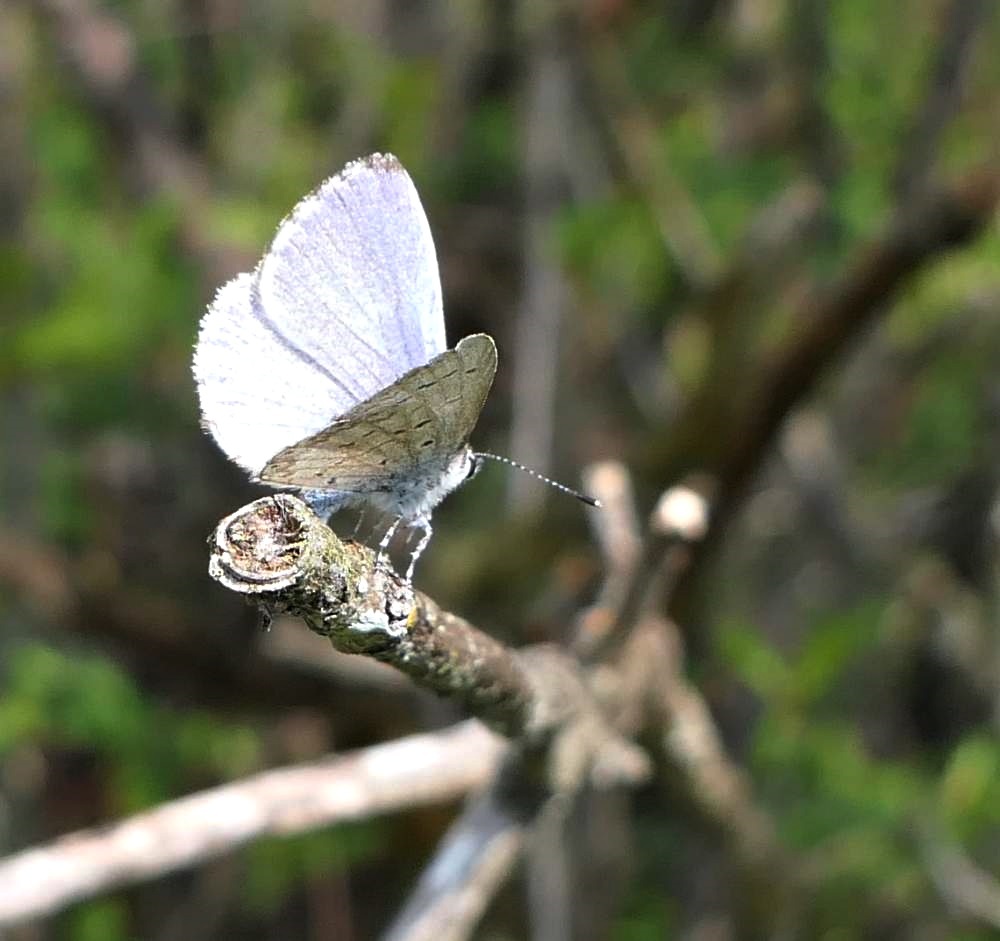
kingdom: Animalia
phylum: Arthropoda
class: Insecta
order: Lepidoptera
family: Lycaenidae
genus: Celastrina
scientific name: Celastrina lucia
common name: Lucia azure
